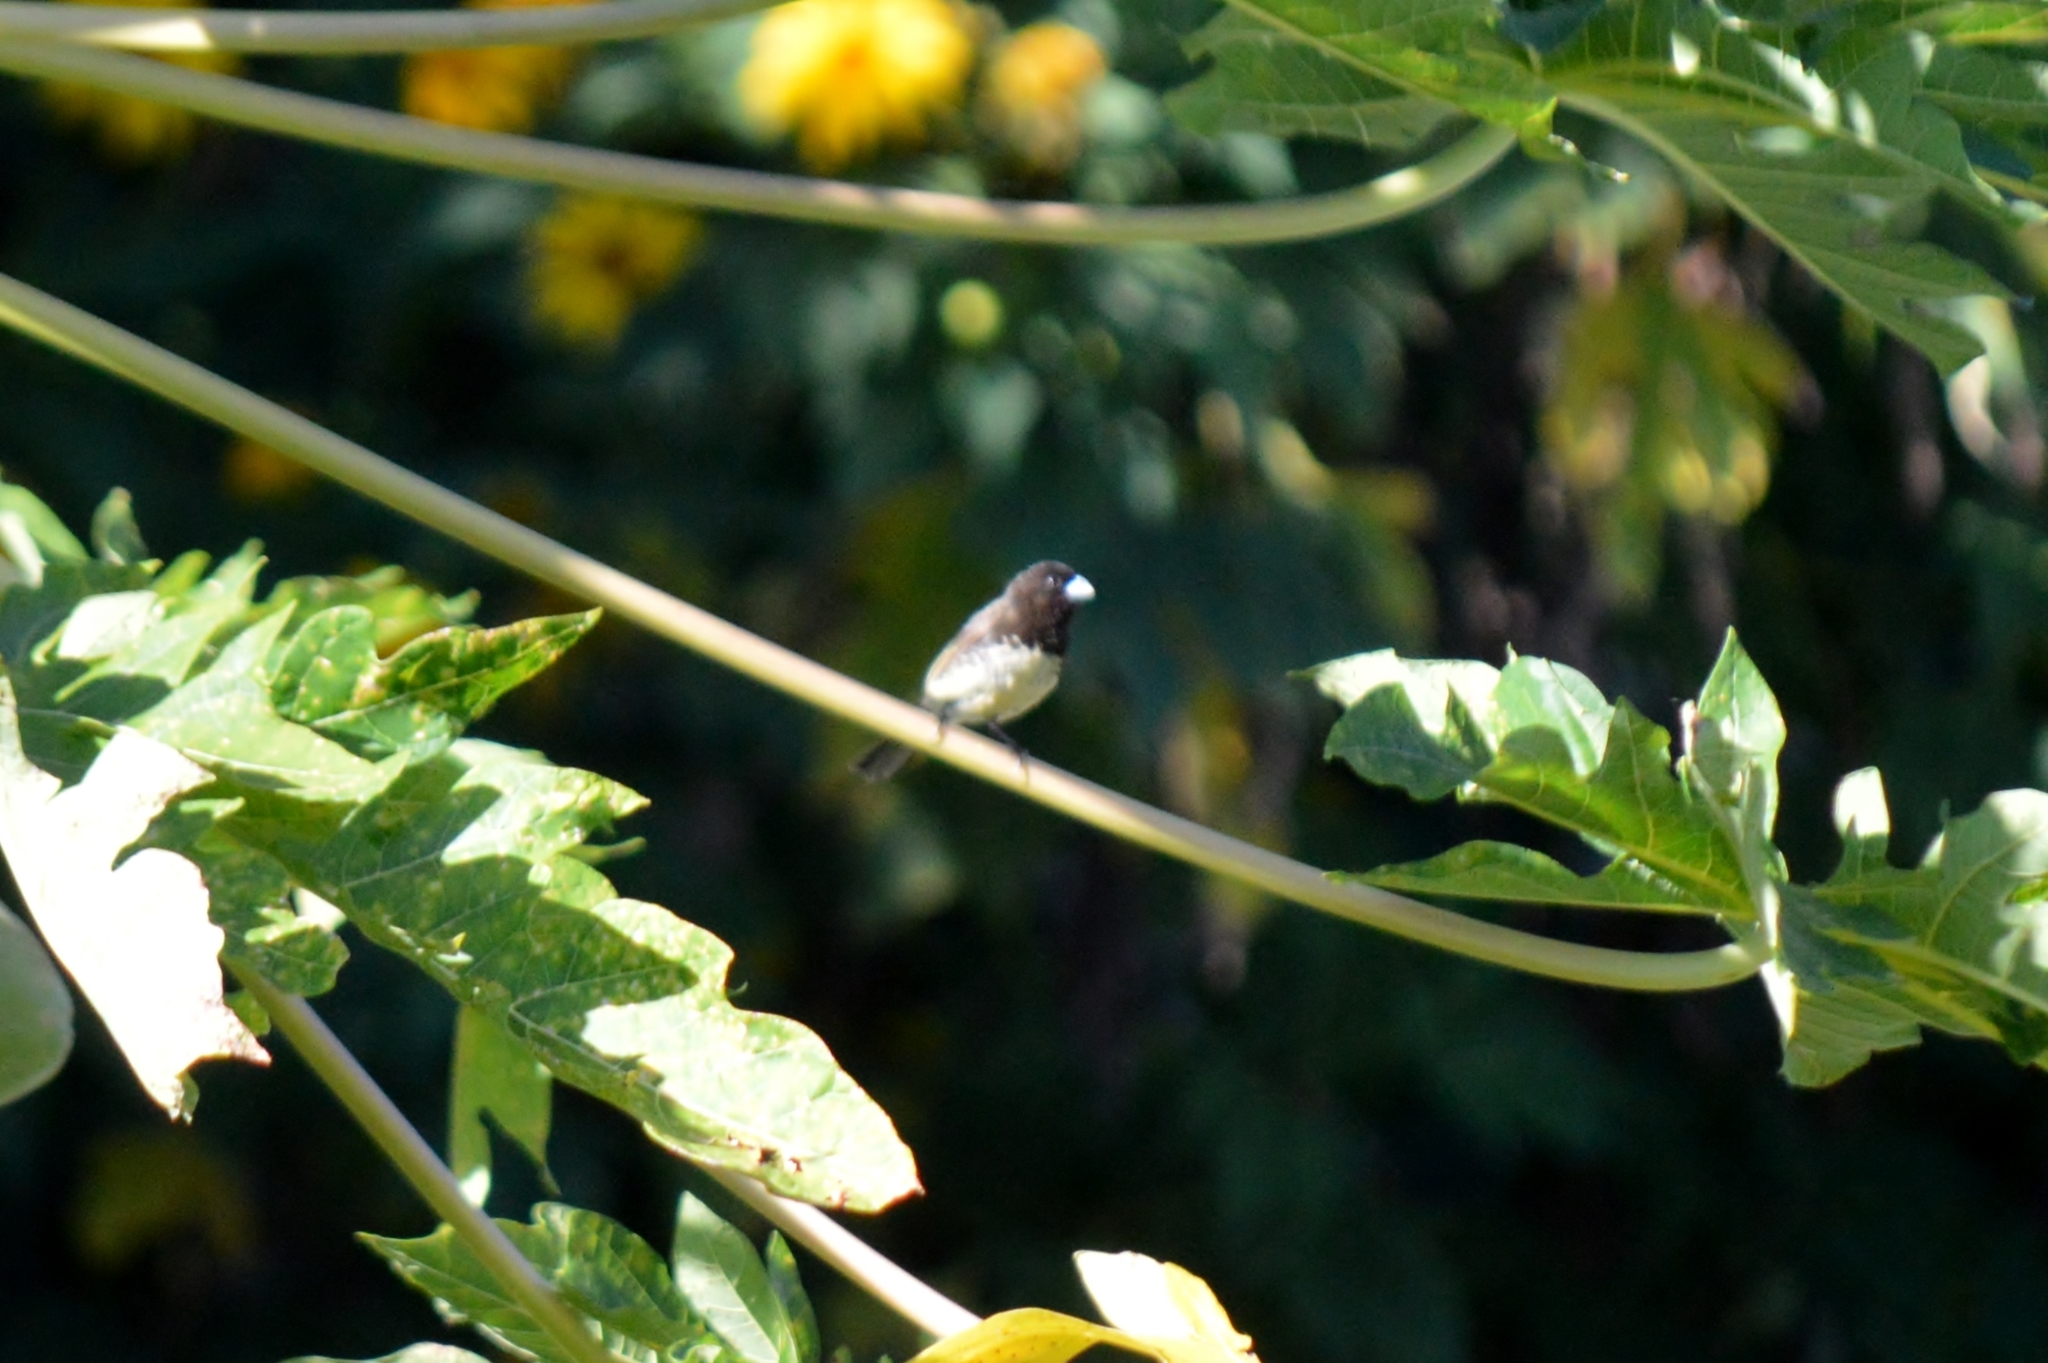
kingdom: Animalia
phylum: Chordata
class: Aves
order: Passeriformes
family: Thraupidae
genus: Sporophila
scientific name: Sporophila nigricollis
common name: Yellow-bellied seedeater
